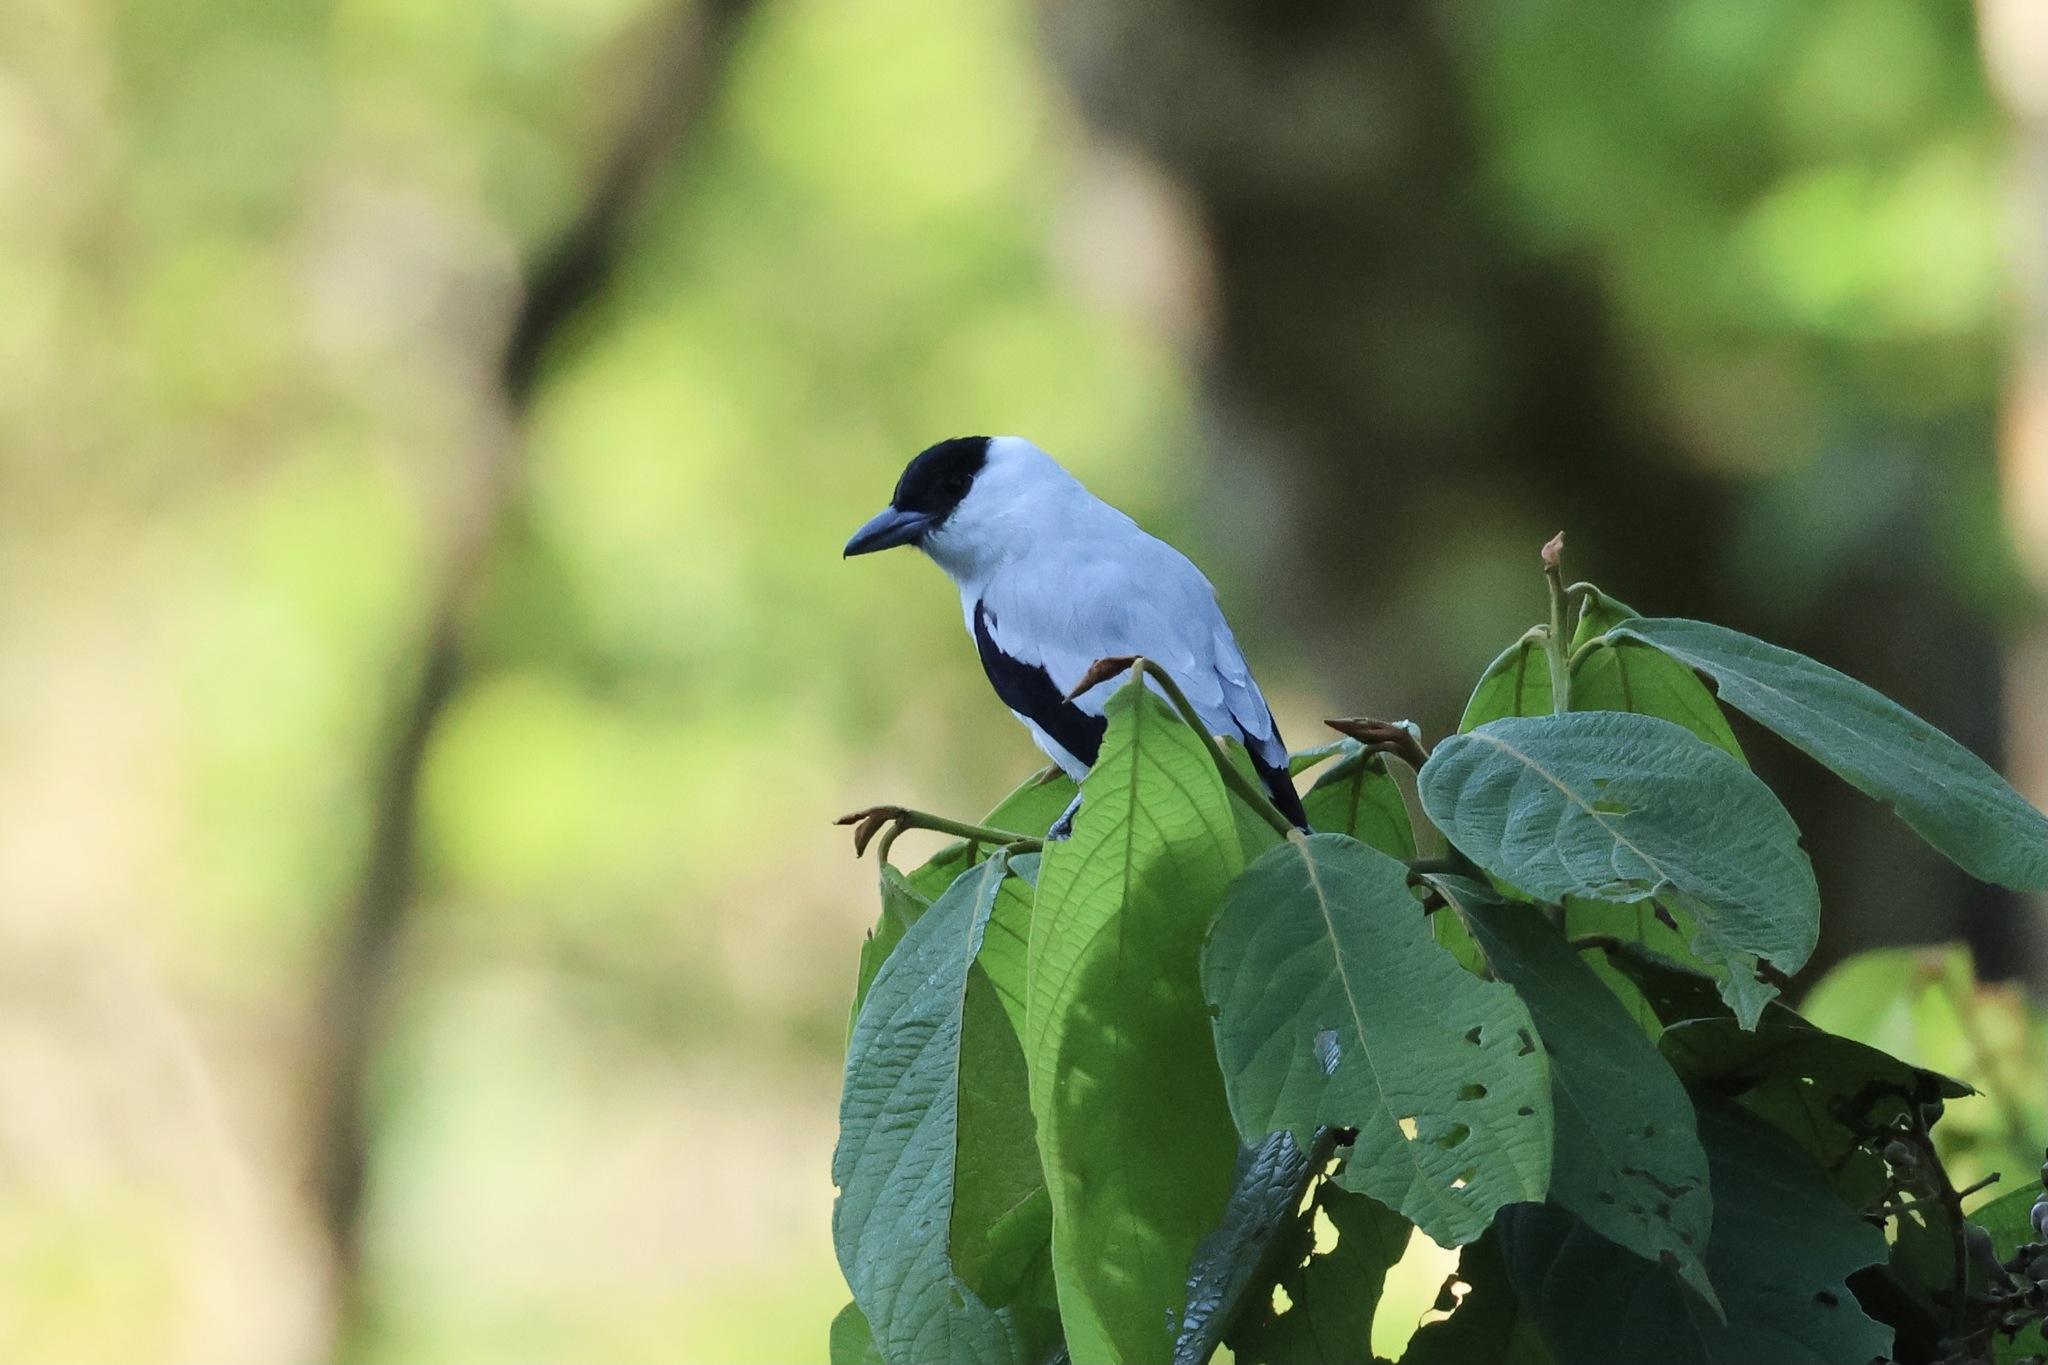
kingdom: Animalia
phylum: Chordata
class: Aves
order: Passeriformes
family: Cotingidae
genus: Tityra
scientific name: Tityra inquisitor
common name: Black-crowned tityra
